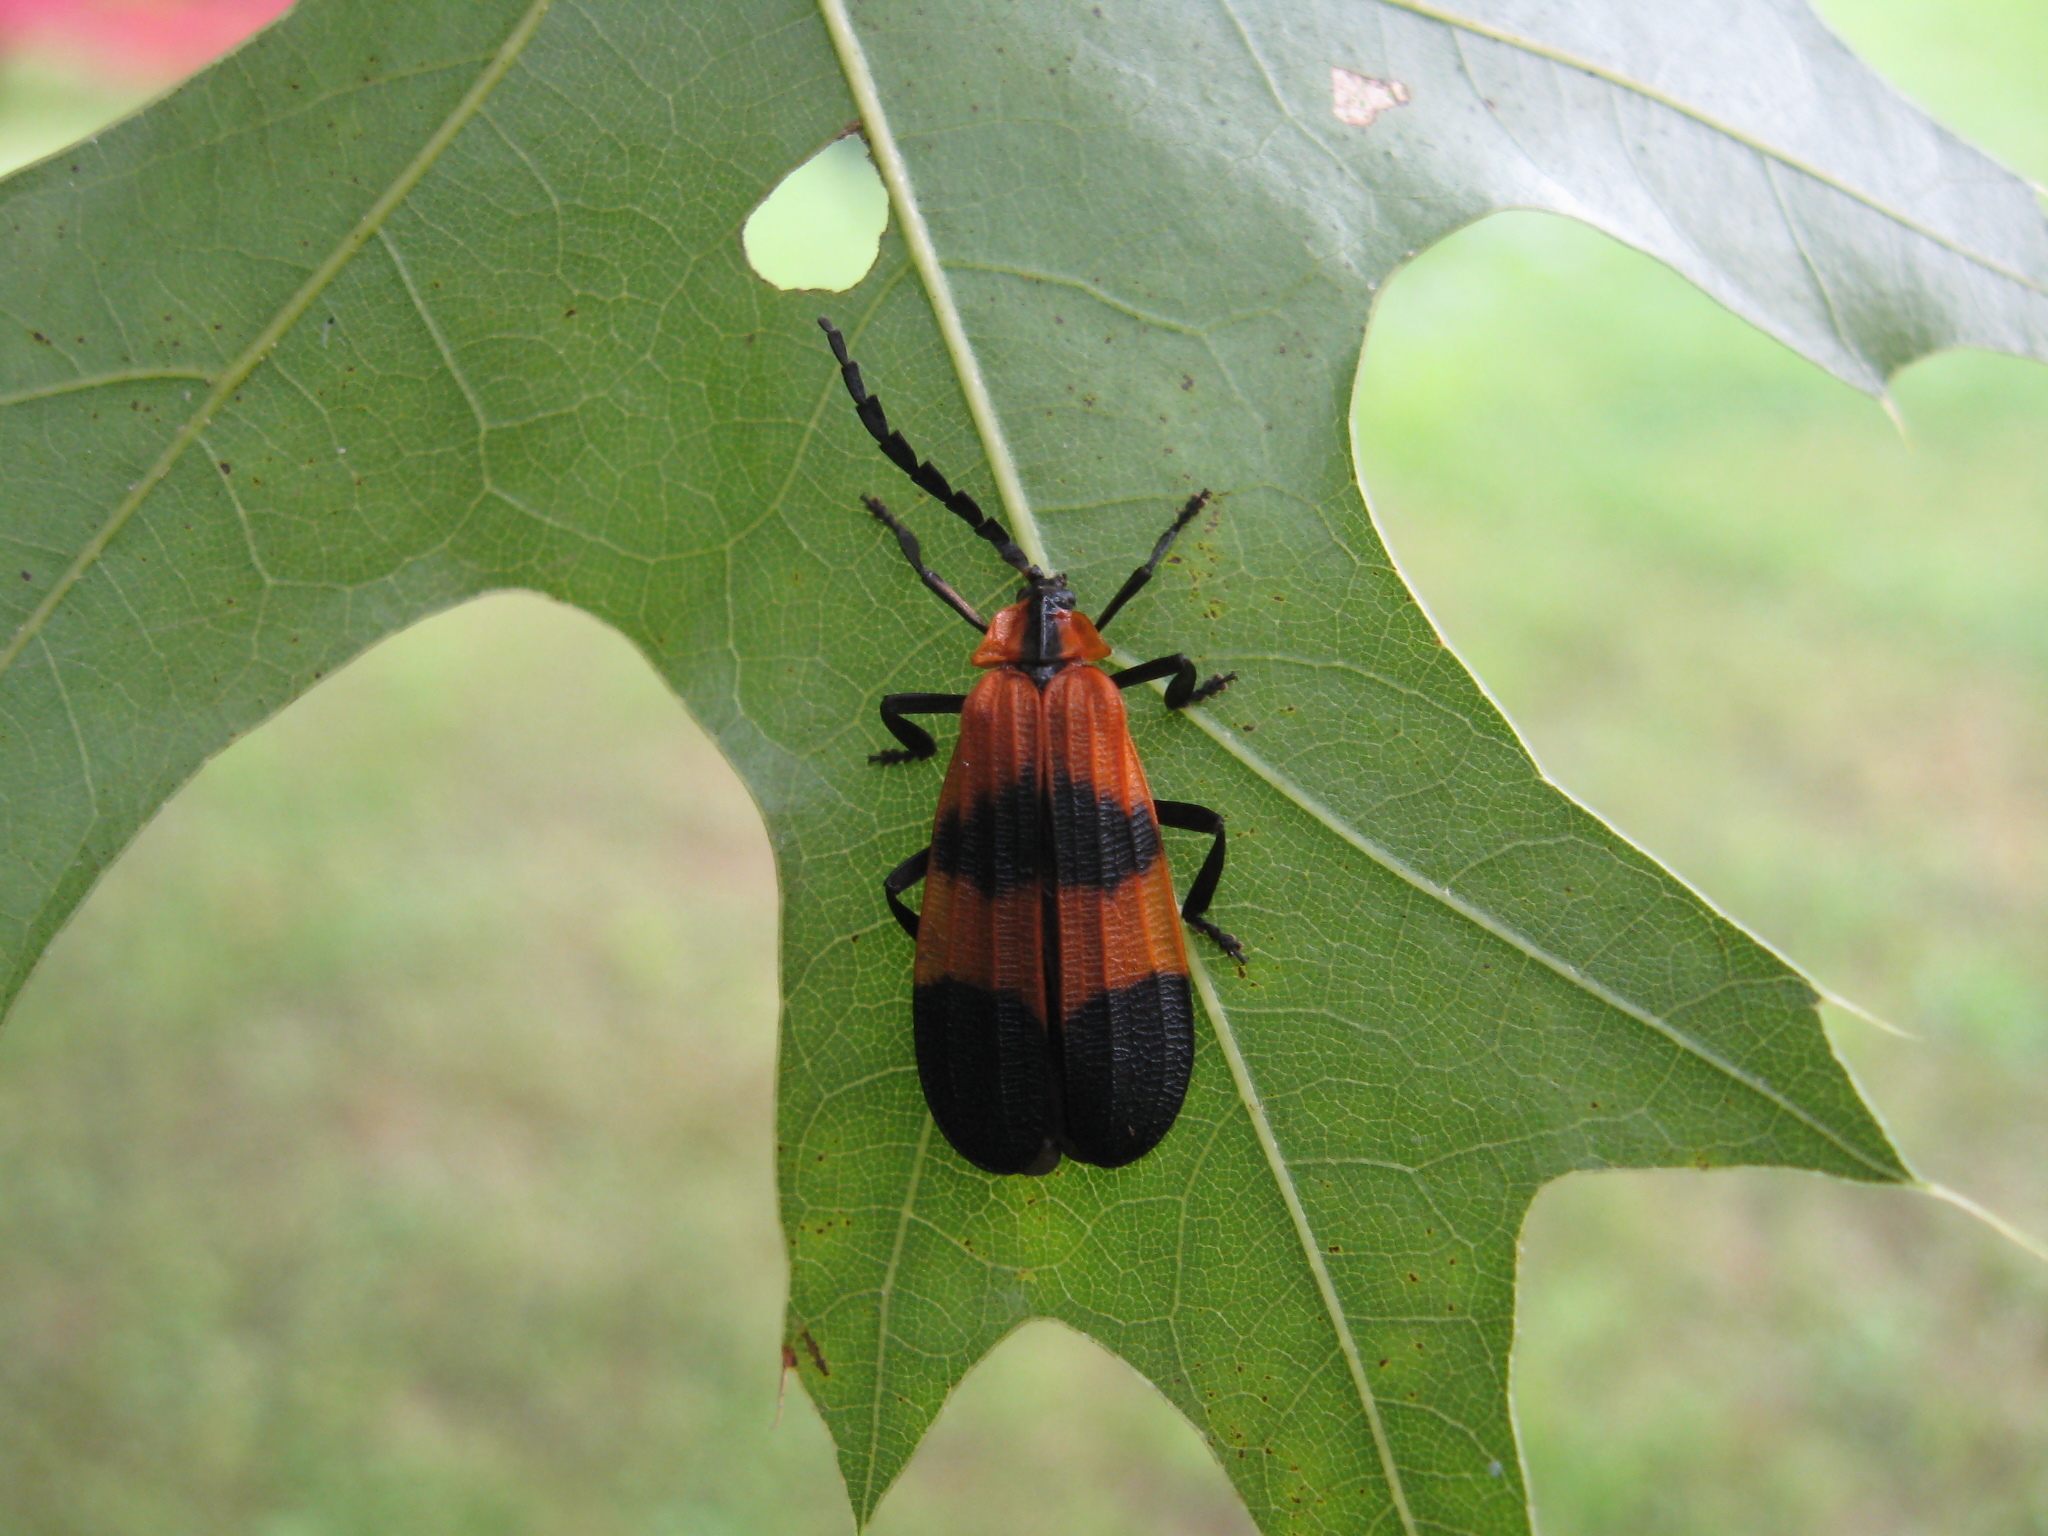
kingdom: Animalia
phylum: Arthropoda
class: Insecta
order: Coleoptera
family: Lycidae
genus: Calopteron
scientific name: Calopteron reticulatum
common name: Banded net-winged beetle
